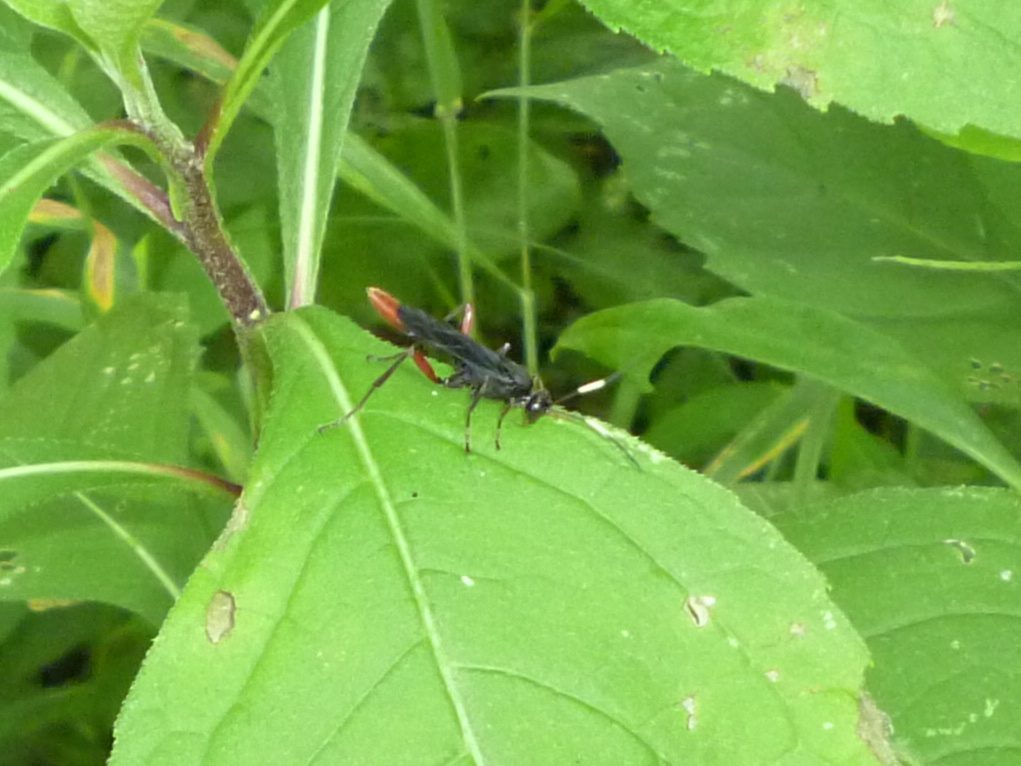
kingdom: Animalia
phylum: Arthropoda
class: Insecta
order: Hymenoptera
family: Ichneumonidae
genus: Limonethe
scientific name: Limonethe maurator
